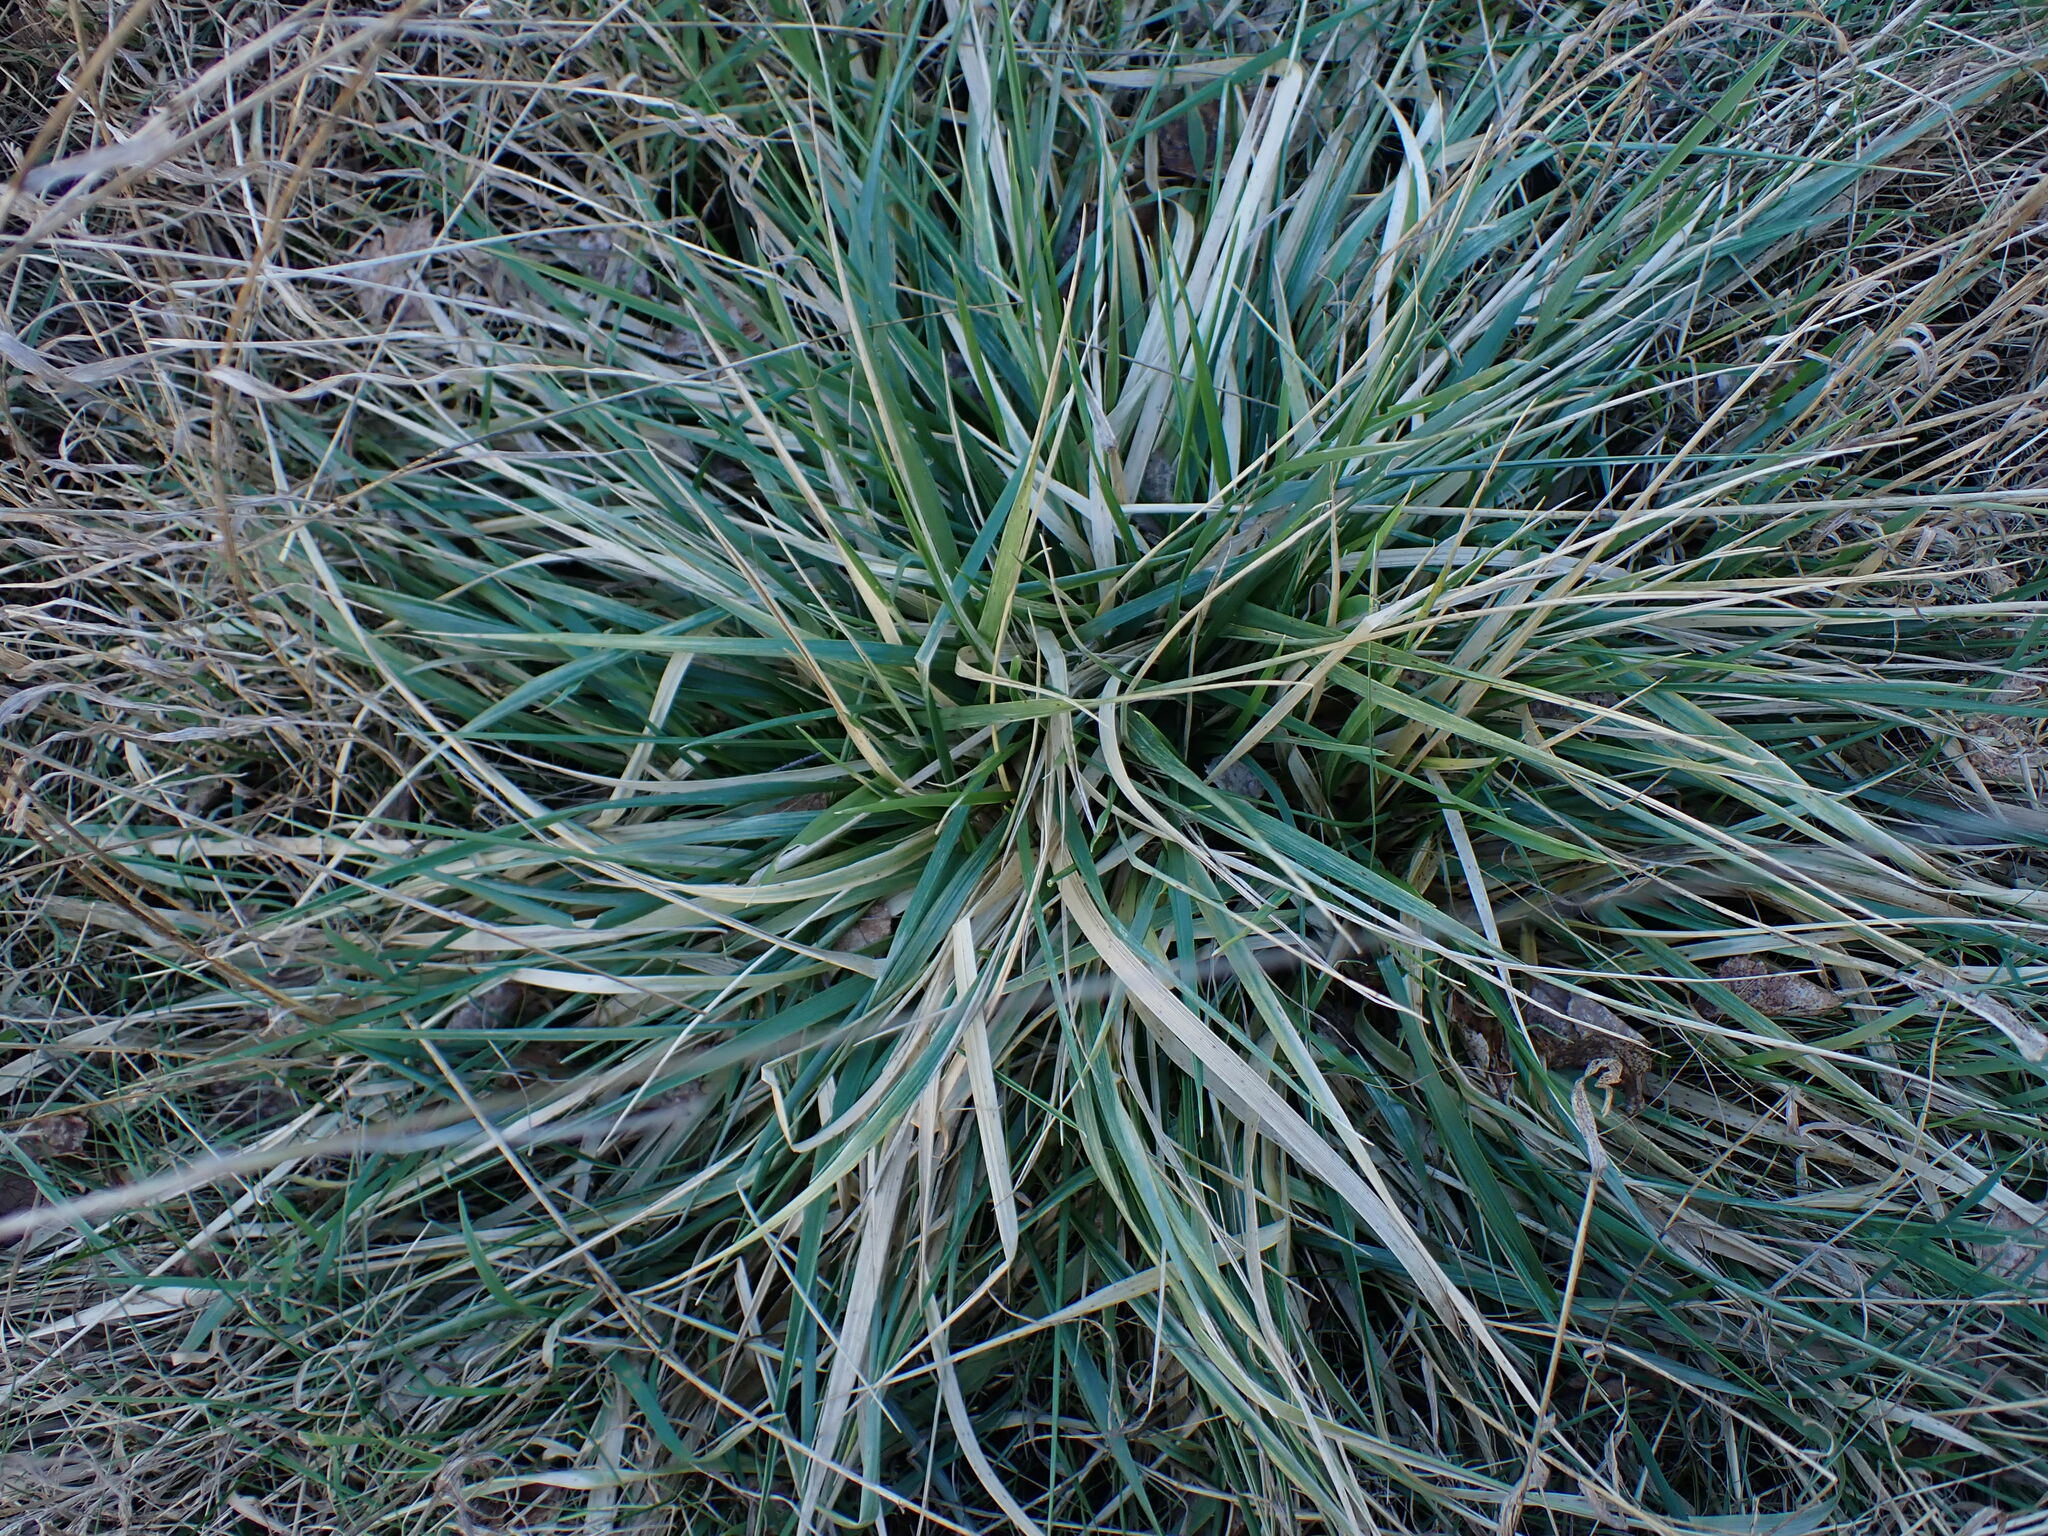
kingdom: Plantae
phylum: Tracheophyta
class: Liliopsida
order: Poales
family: Poaceae
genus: Lolium
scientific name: Lolium arundinaceum
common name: Reed fescue
